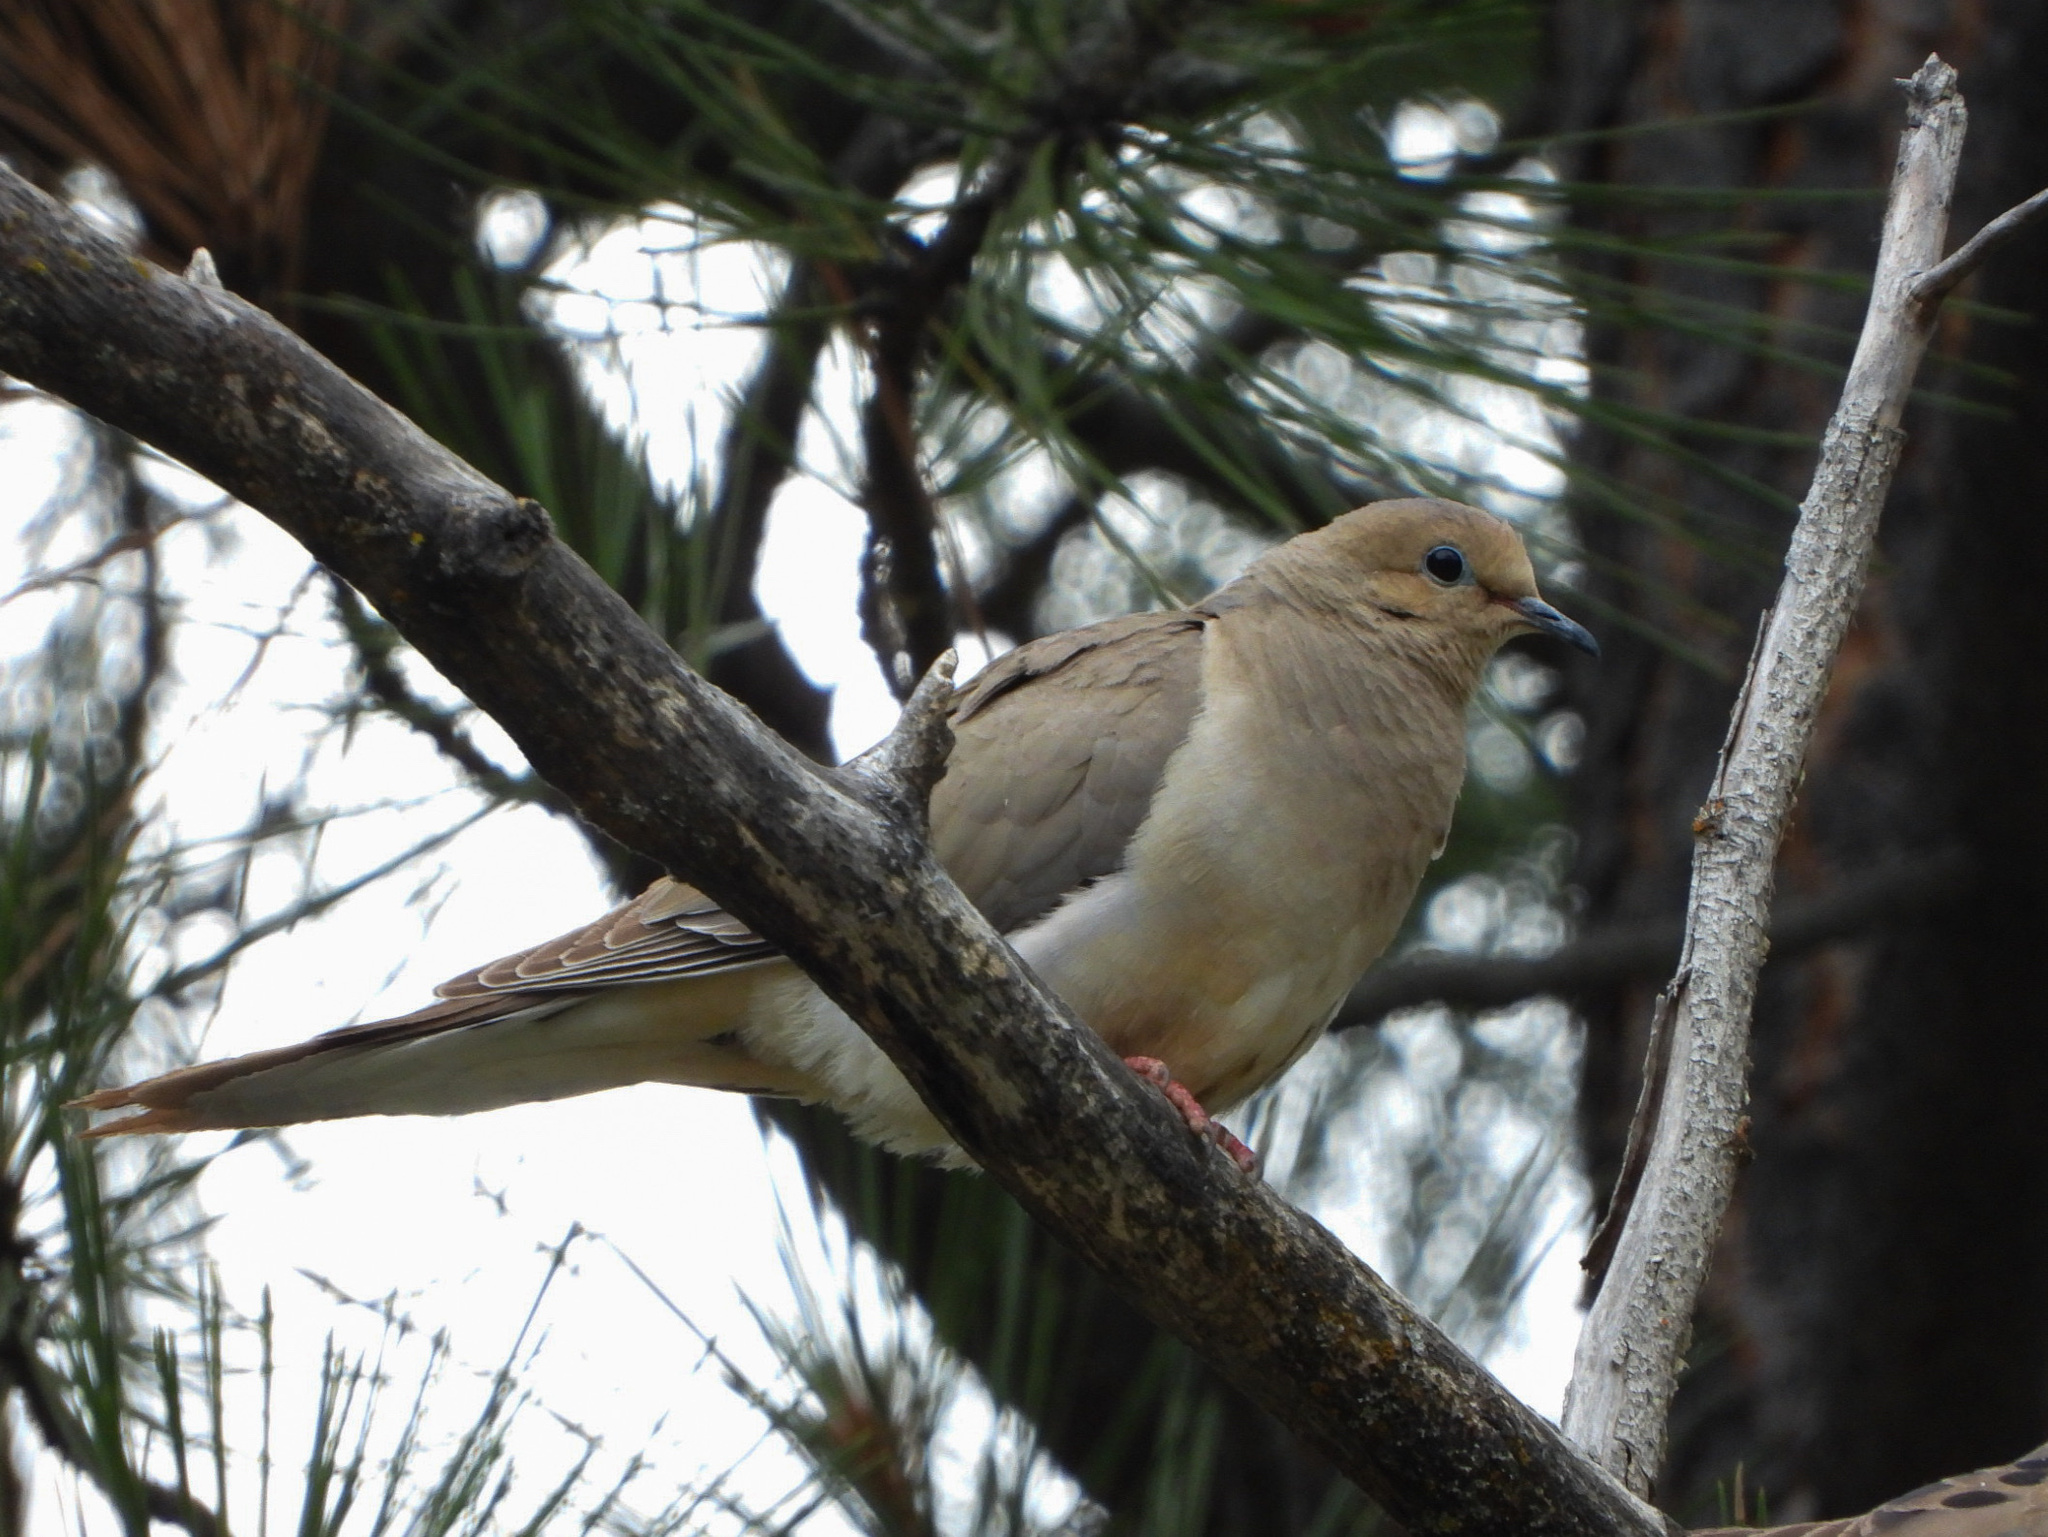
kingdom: Animalia
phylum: Chordata
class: Aves
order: Columbiformes
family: Columbidae
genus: Zenaida
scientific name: Zenaida macroura
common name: Mourning dove
